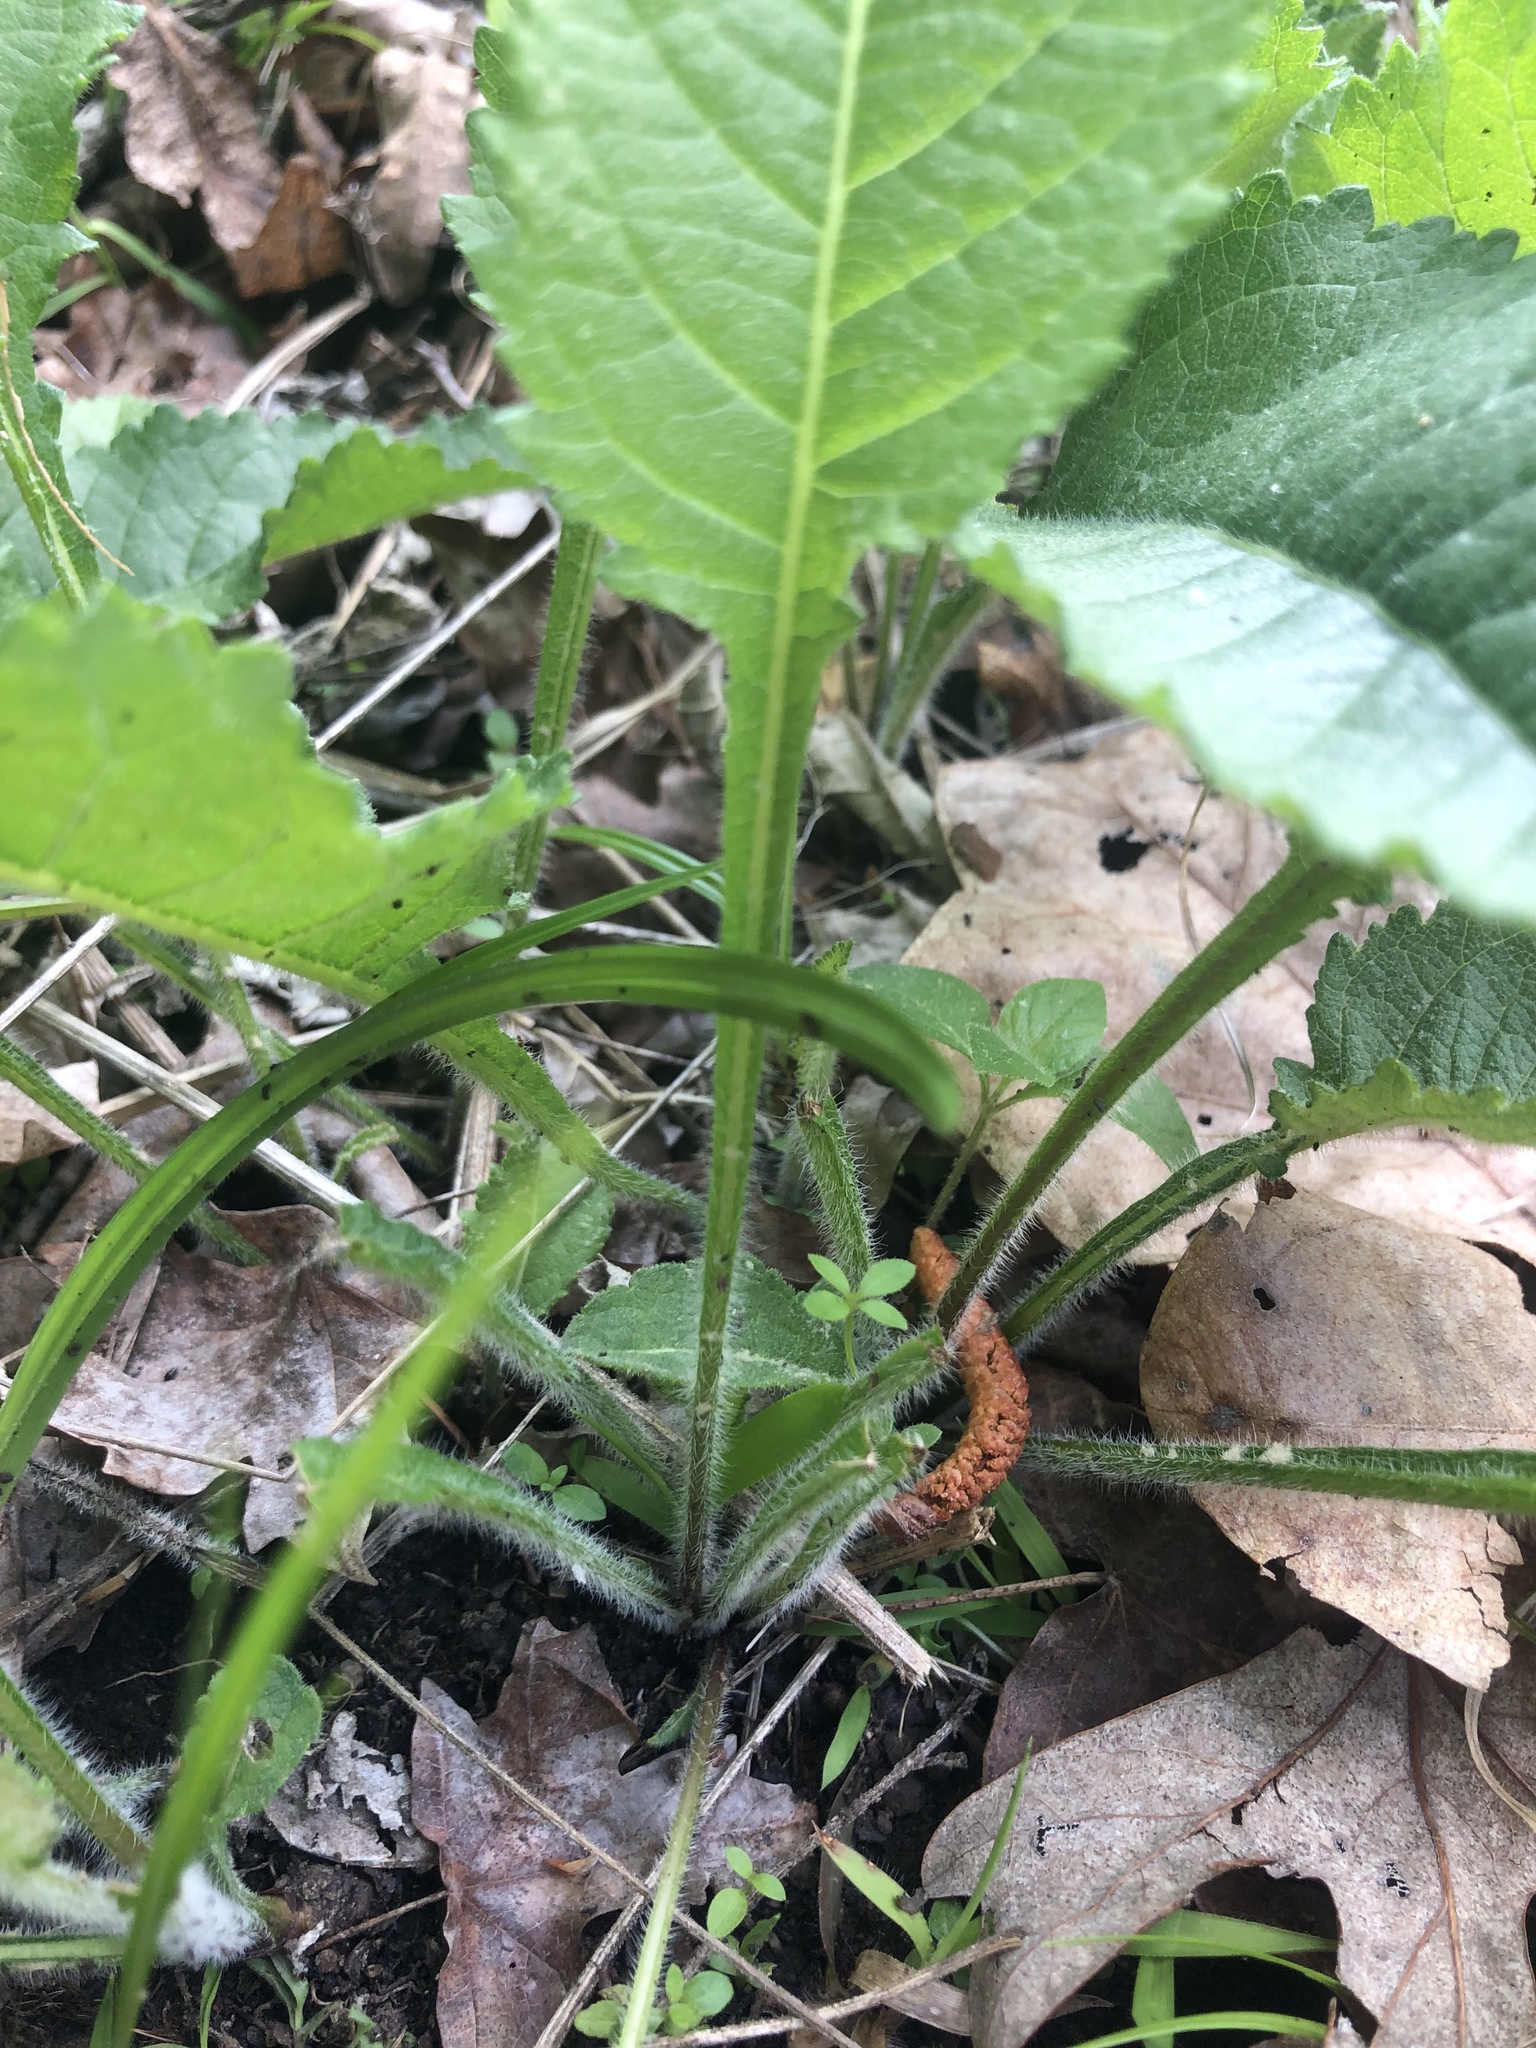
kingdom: Plantae
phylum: Tracheophyta
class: Magnoliopsida
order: Asterales
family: Asteraceae
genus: Parthenium
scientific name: Parthenium auriculatum
